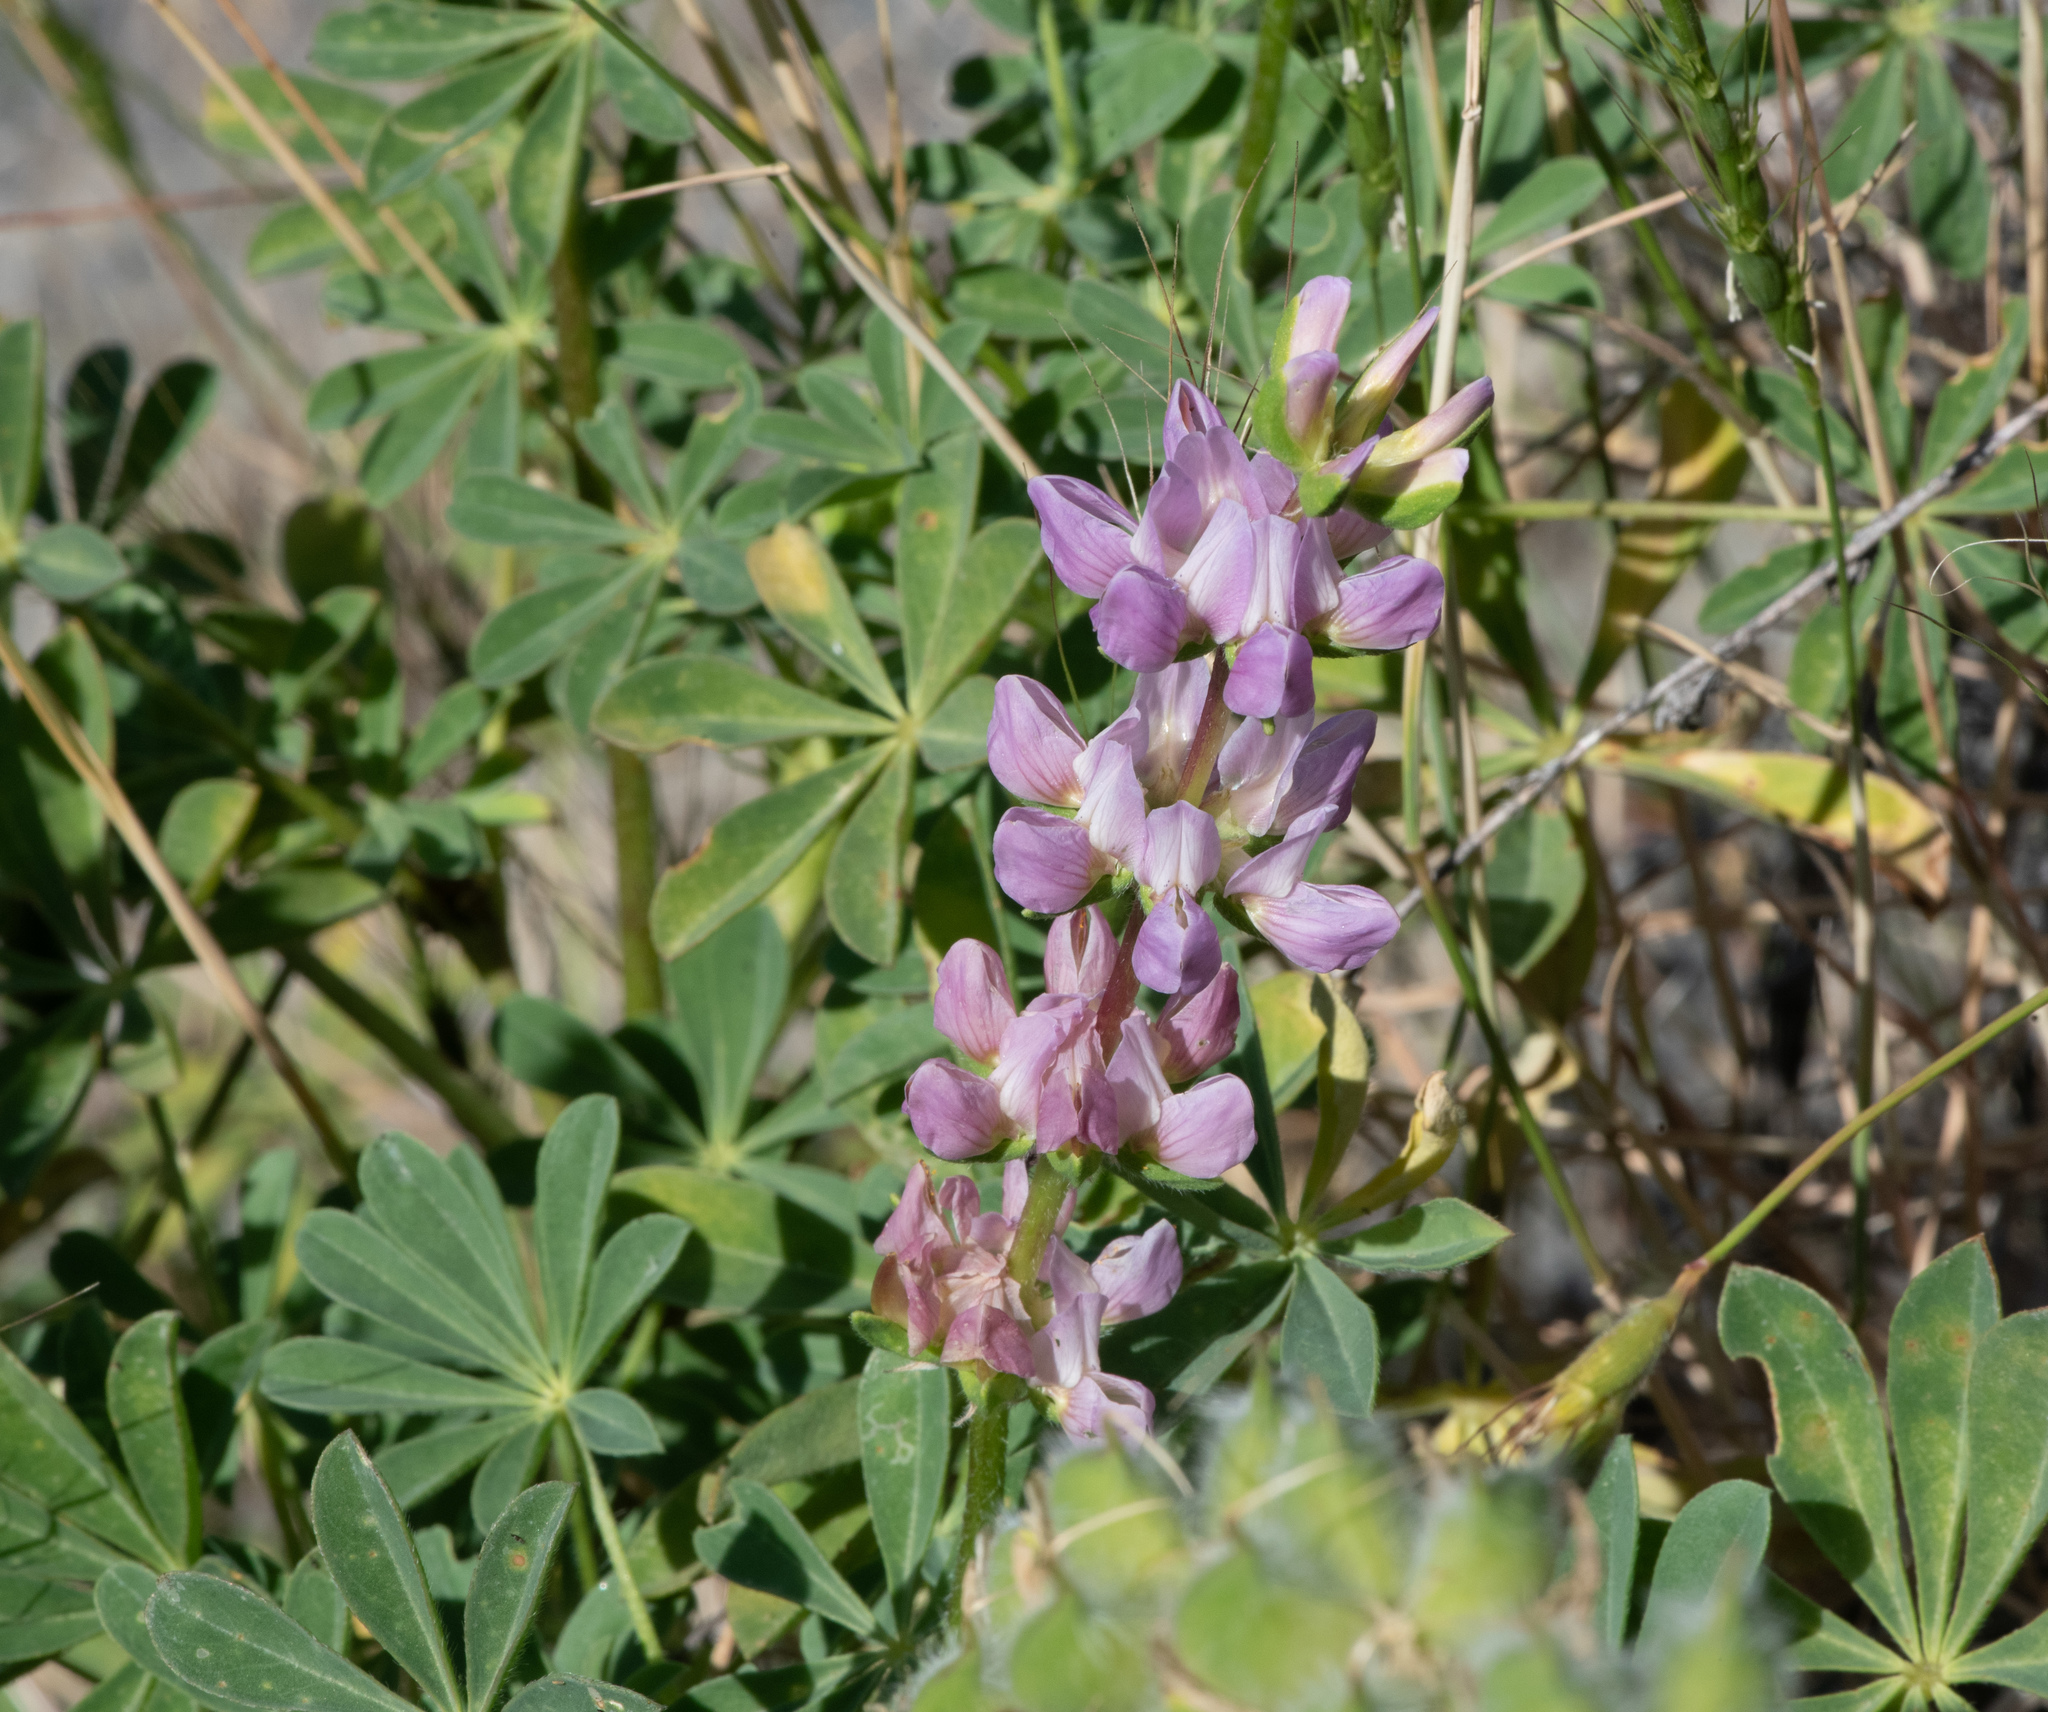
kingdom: Plantae
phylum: Tracheophyta
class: Magnoliopsida
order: Fabales
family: Fabaceae
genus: Lupinus
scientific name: Lupinus microcarpus
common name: Chick lupine
